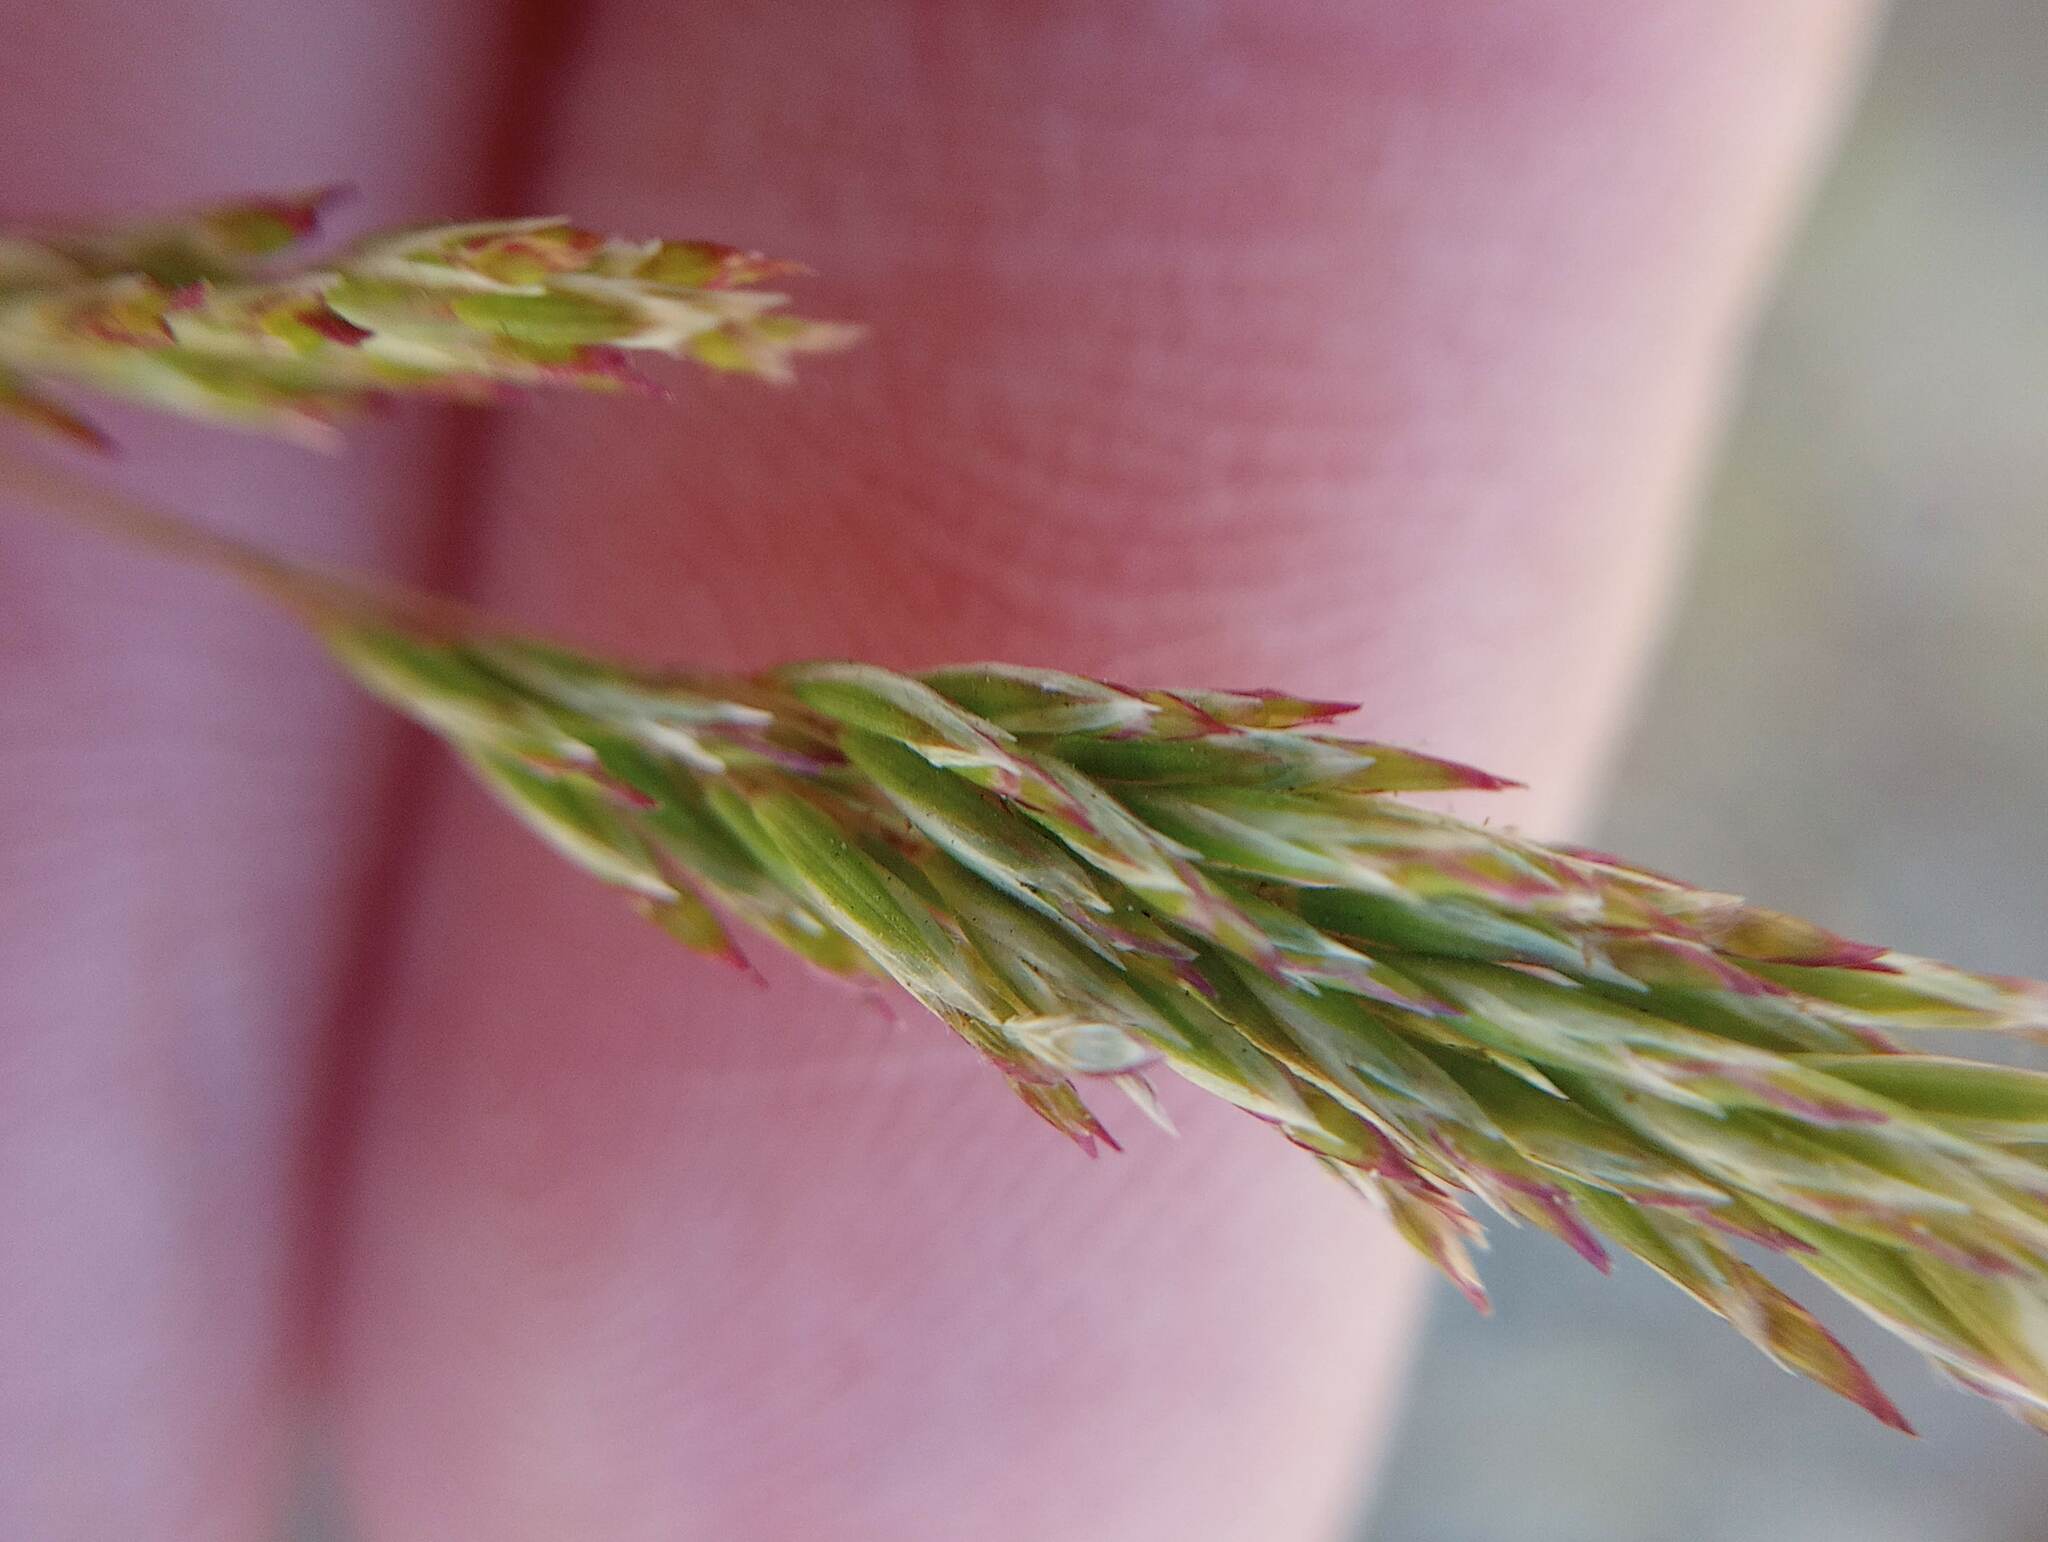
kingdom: Plantae
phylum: Tracheophyta
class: Liliopsida
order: Poales
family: Poaceae
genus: Schismus
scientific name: Schismus barbatus
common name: Kelch-grass
